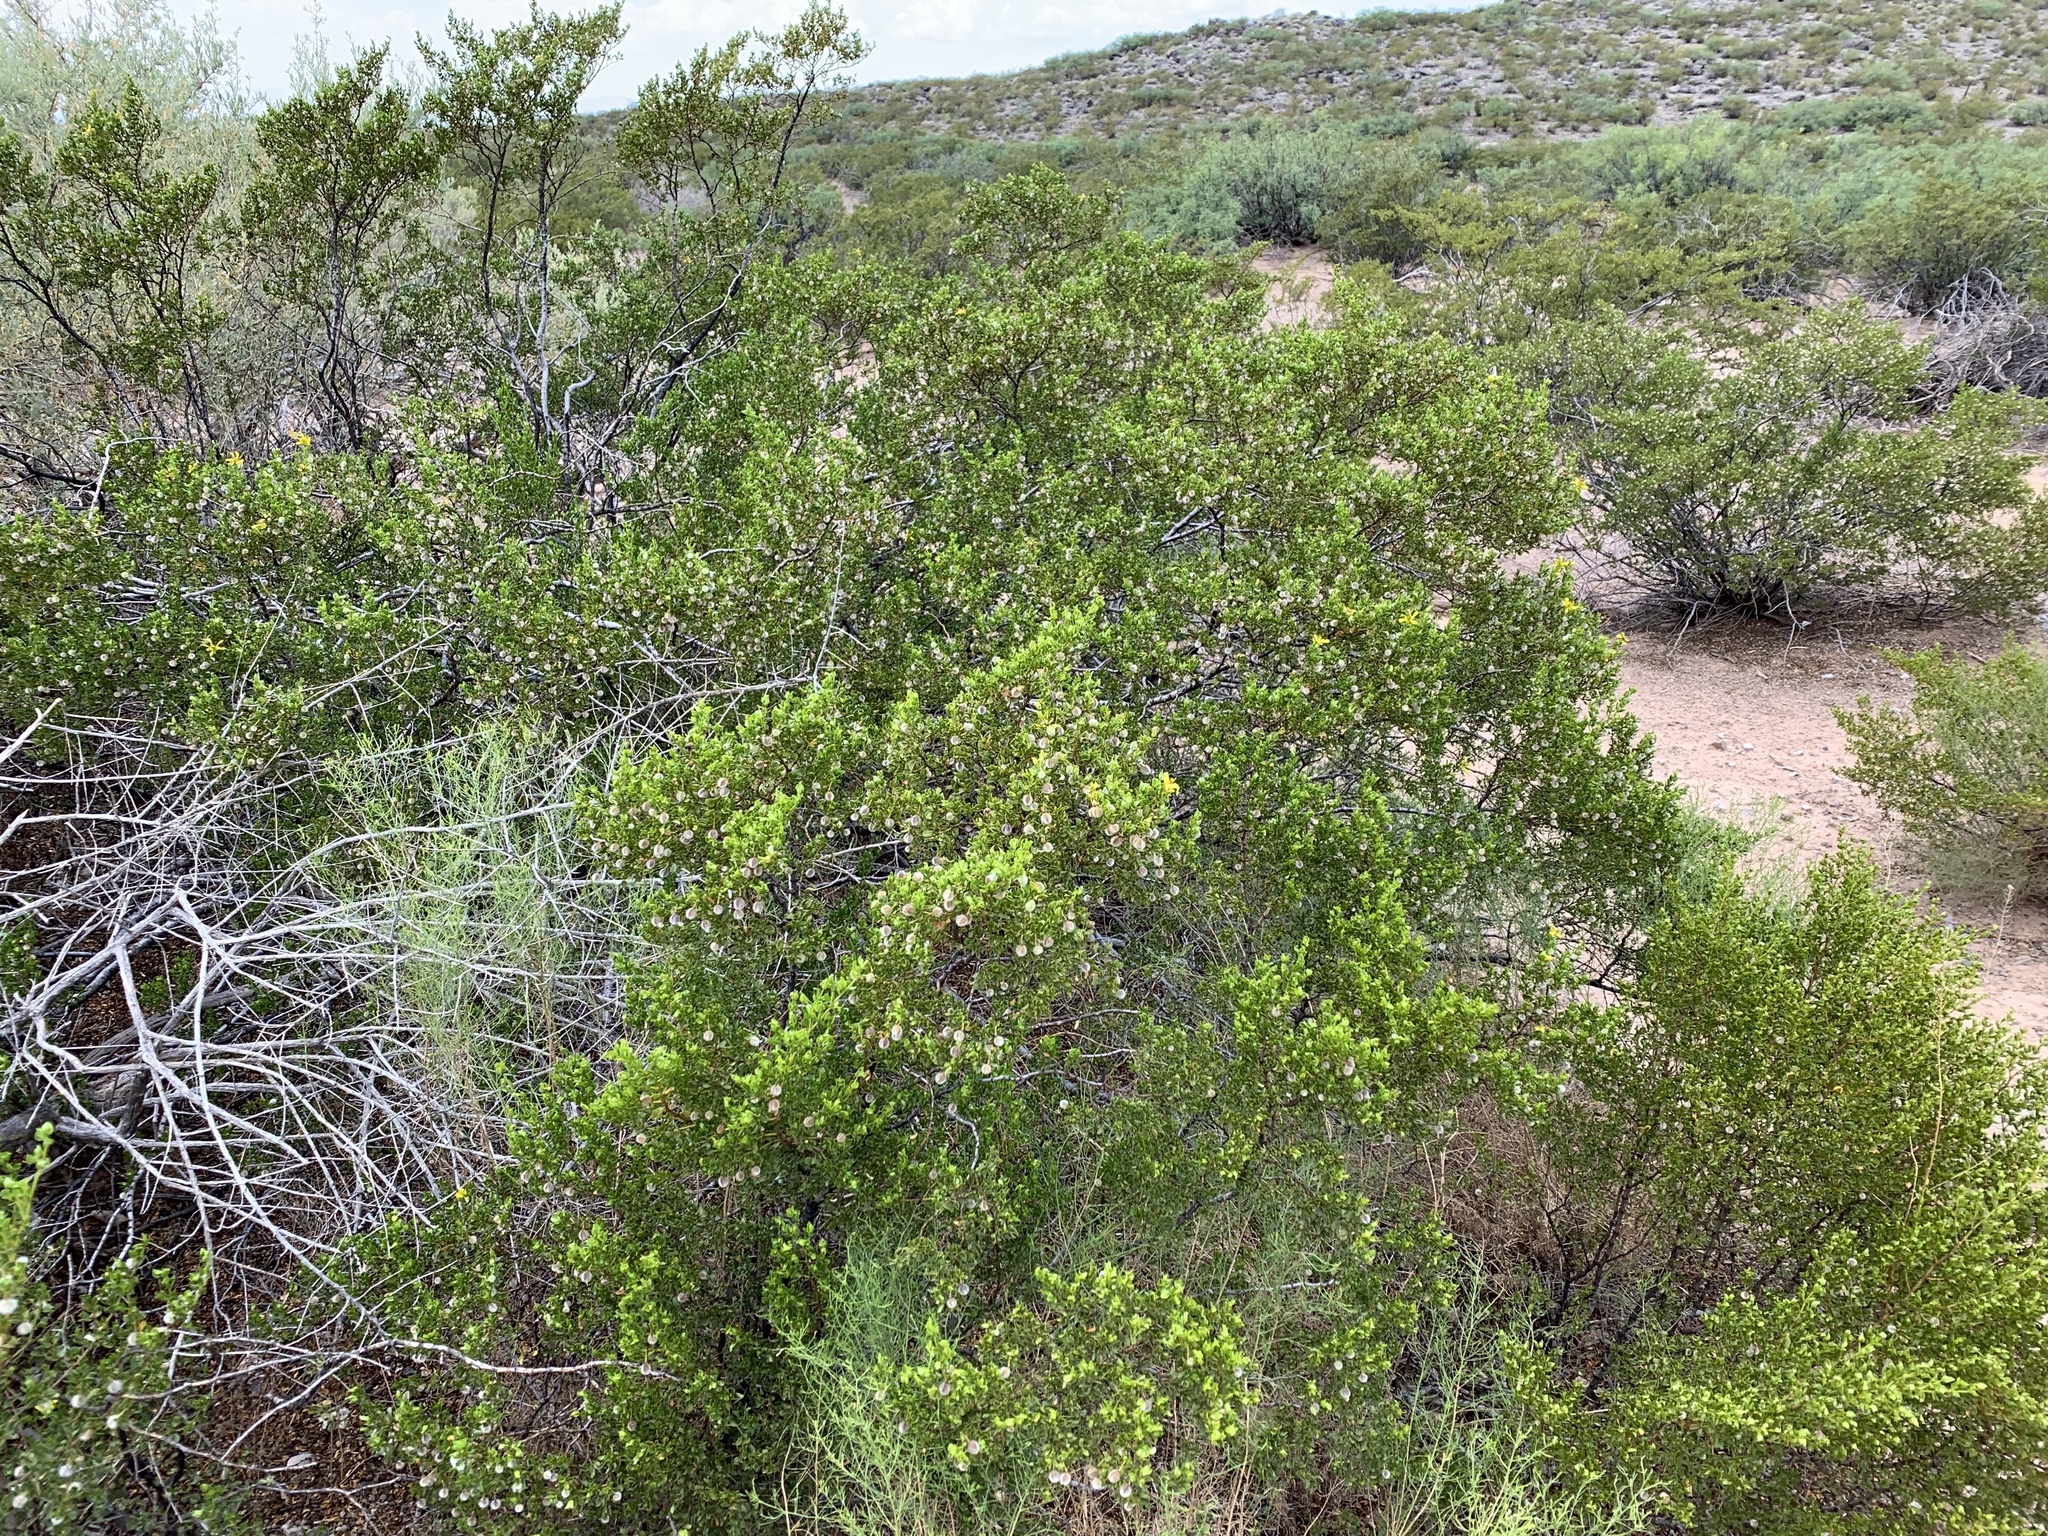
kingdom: Plantae
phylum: Tracheophyta
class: Magnoliopsida
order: Zygophyllales
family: Zygophyllaceae
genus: Larrea
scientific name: Larrea tridentata
